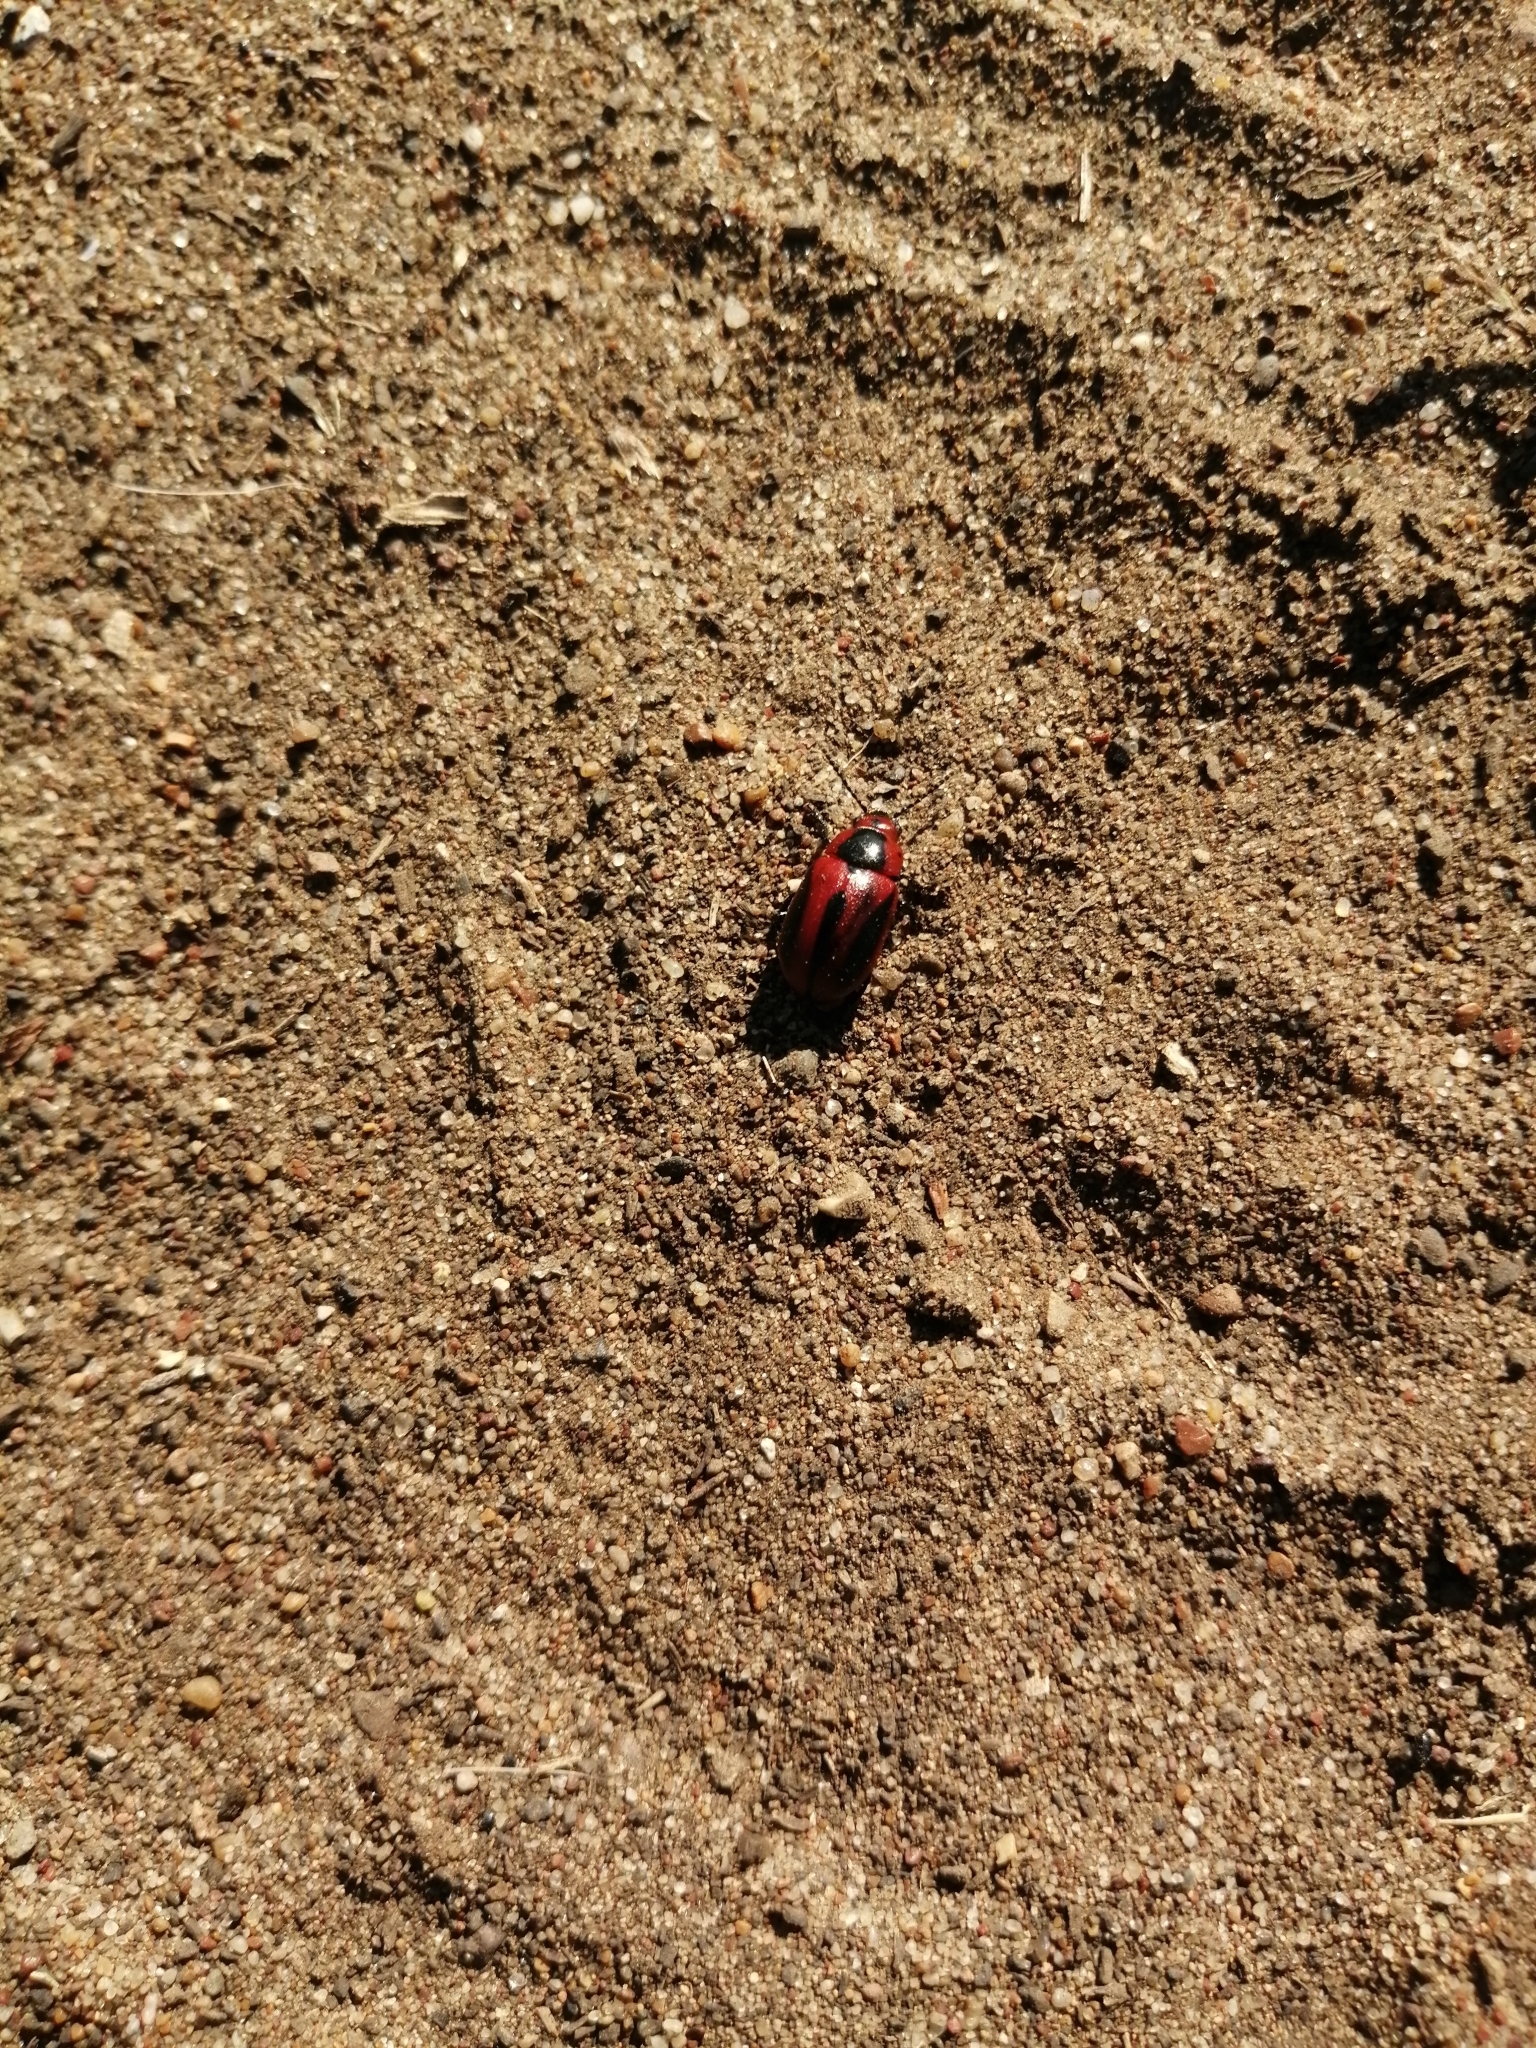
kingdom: Animalia
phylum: Arthropoda
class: Insecta
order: Coleoptera
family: Chrysomelidae
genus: Entomoscelis
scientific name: Entomoscelis adonidis
